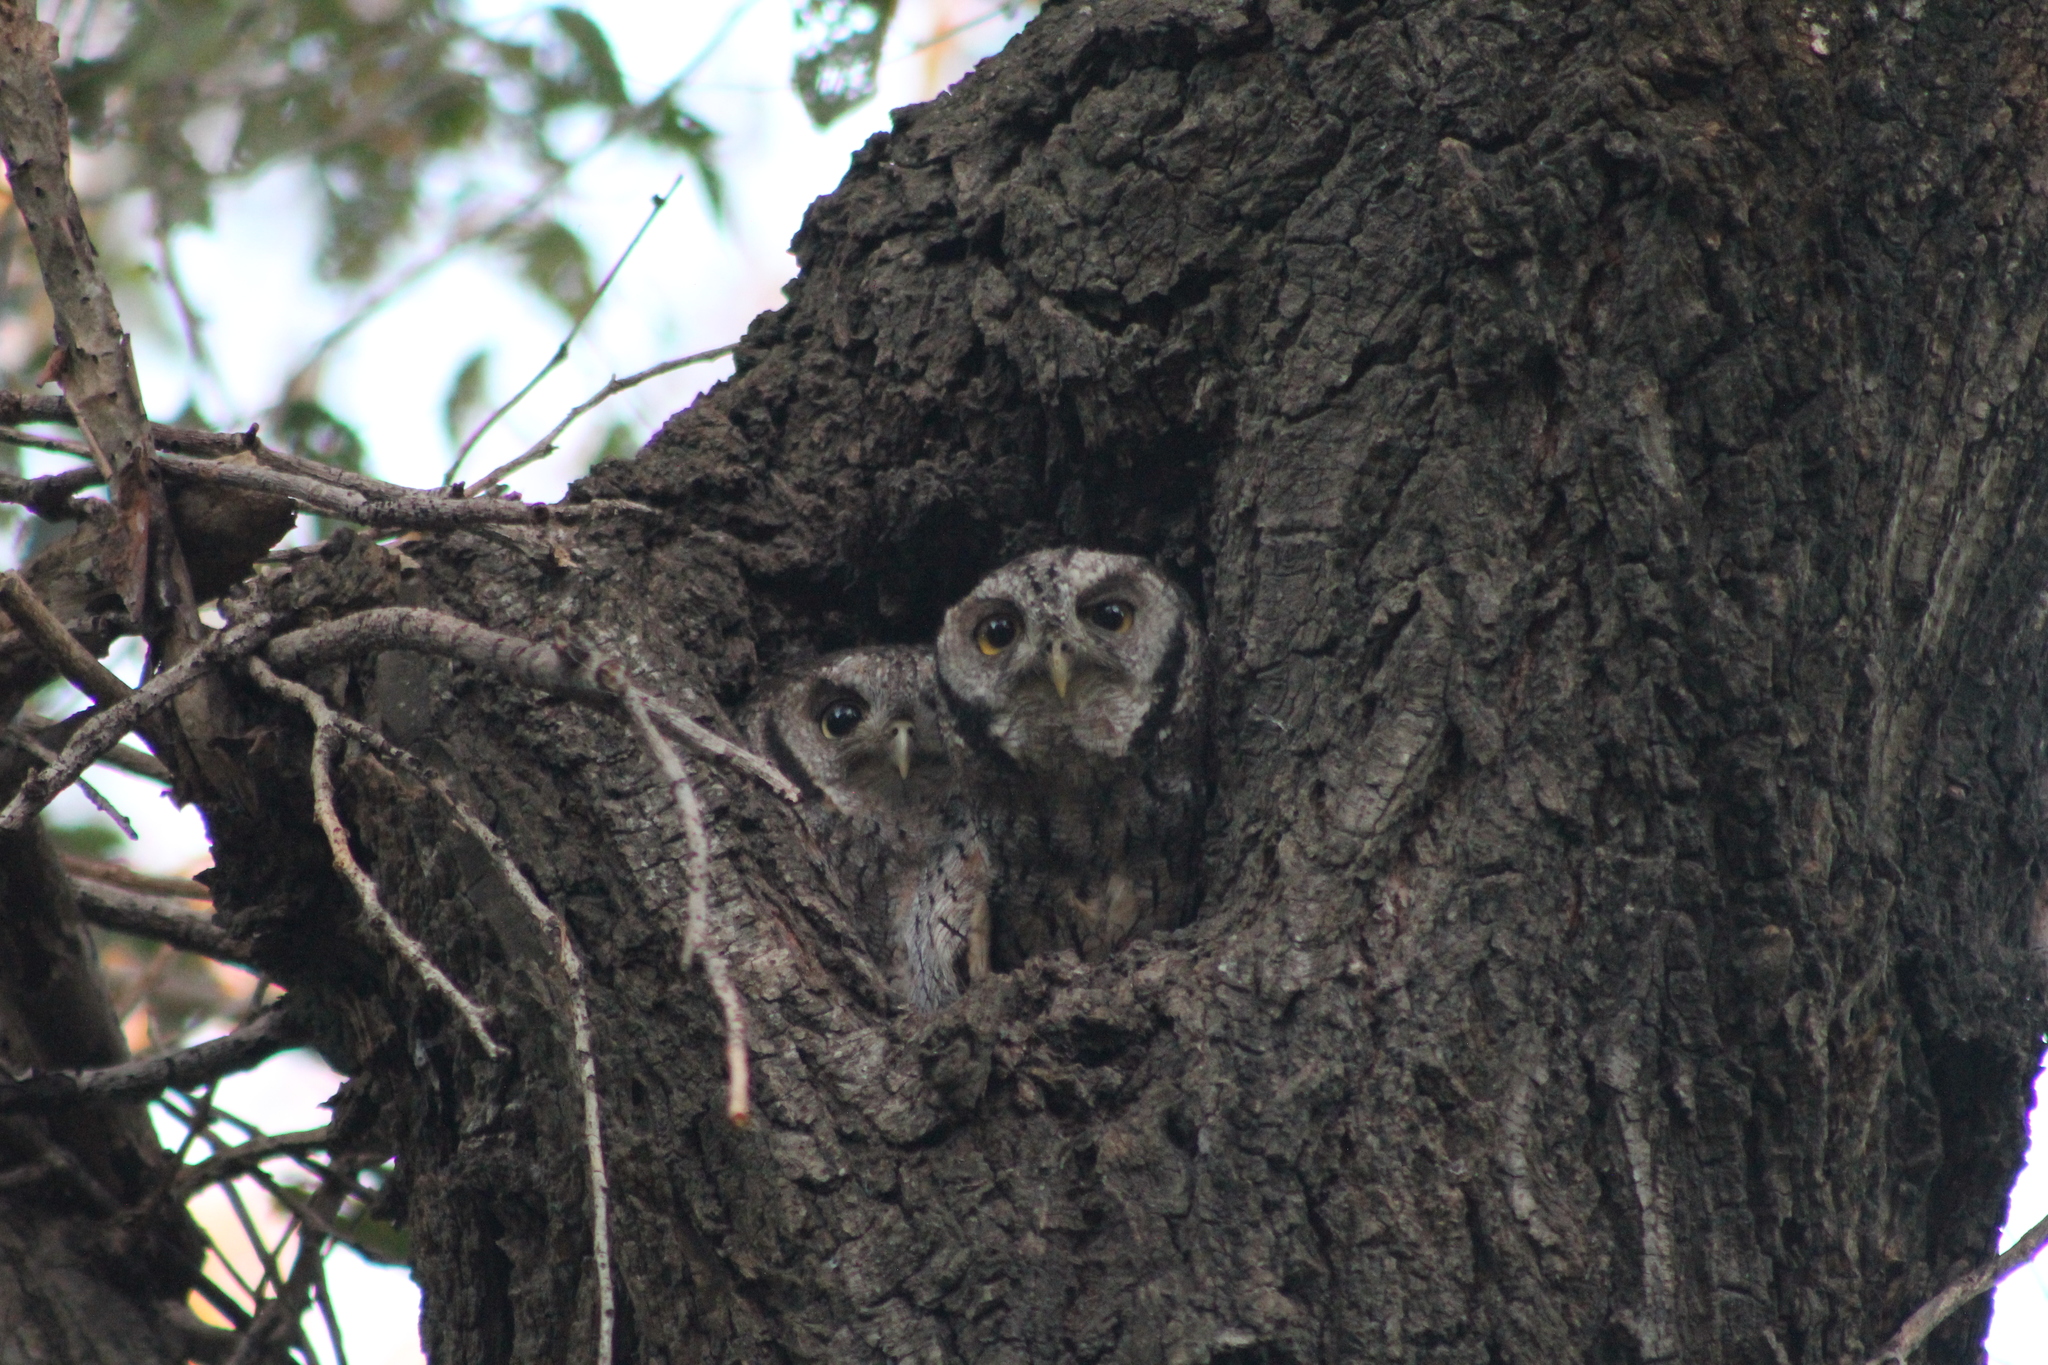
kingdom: Animalia
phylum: Chordata
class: Aves
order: Strigiformes
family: Strigidae
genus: Megascops
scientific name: Megascops choliba
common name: Tropical screech-owl
